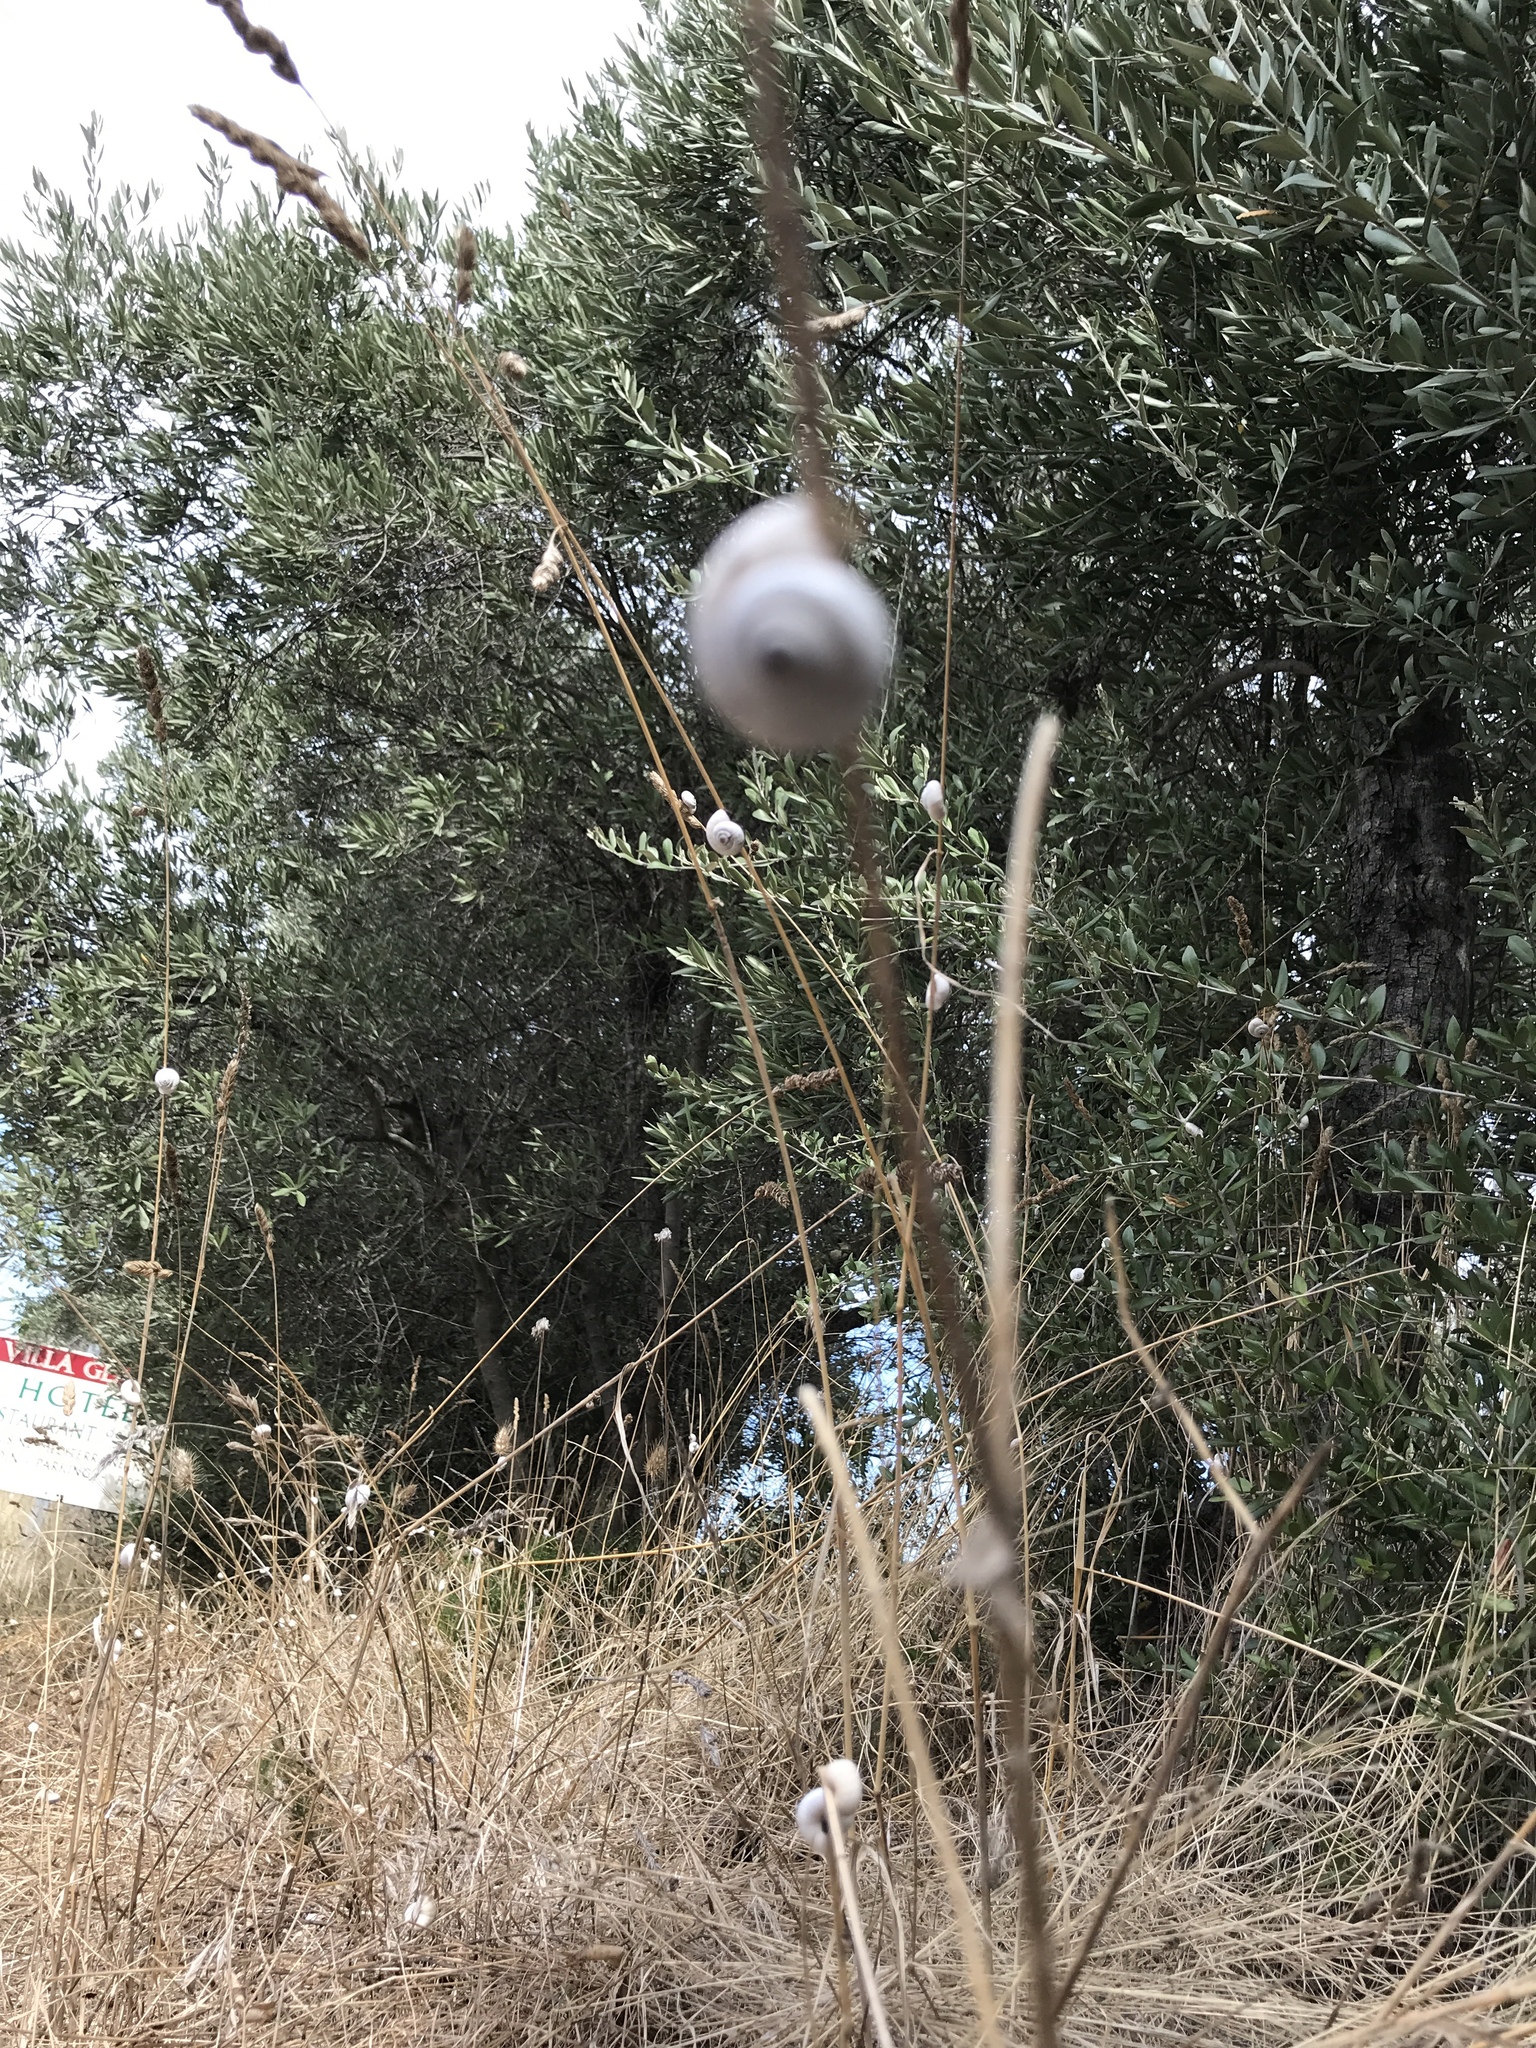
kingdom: Animalia
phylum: Mollusca
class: Gastropoda
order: Stylommatophora
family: Geomitridae
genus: Xeropicta
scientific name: Xeropicta derbentina
